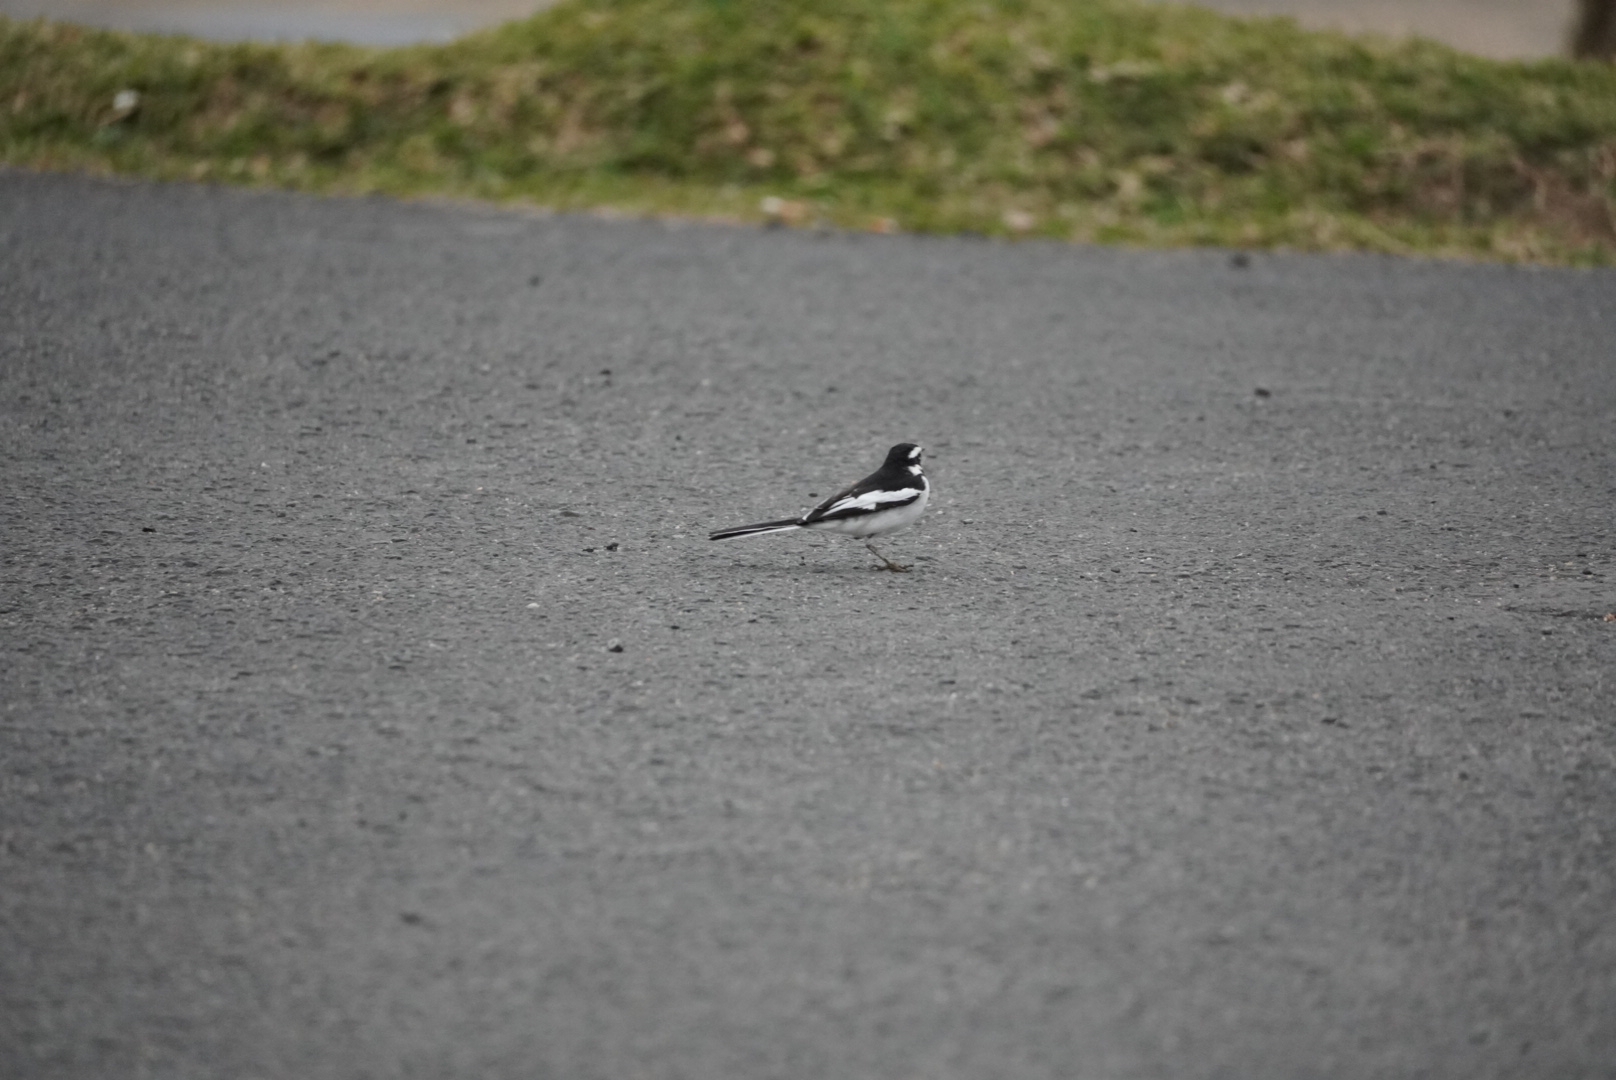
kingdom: Animalia
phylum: Chordata
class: Aves
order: Passeriformes
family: Motacillidae
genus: Motacilla
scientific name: Motacilla aguimp
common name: African pied wagtail
